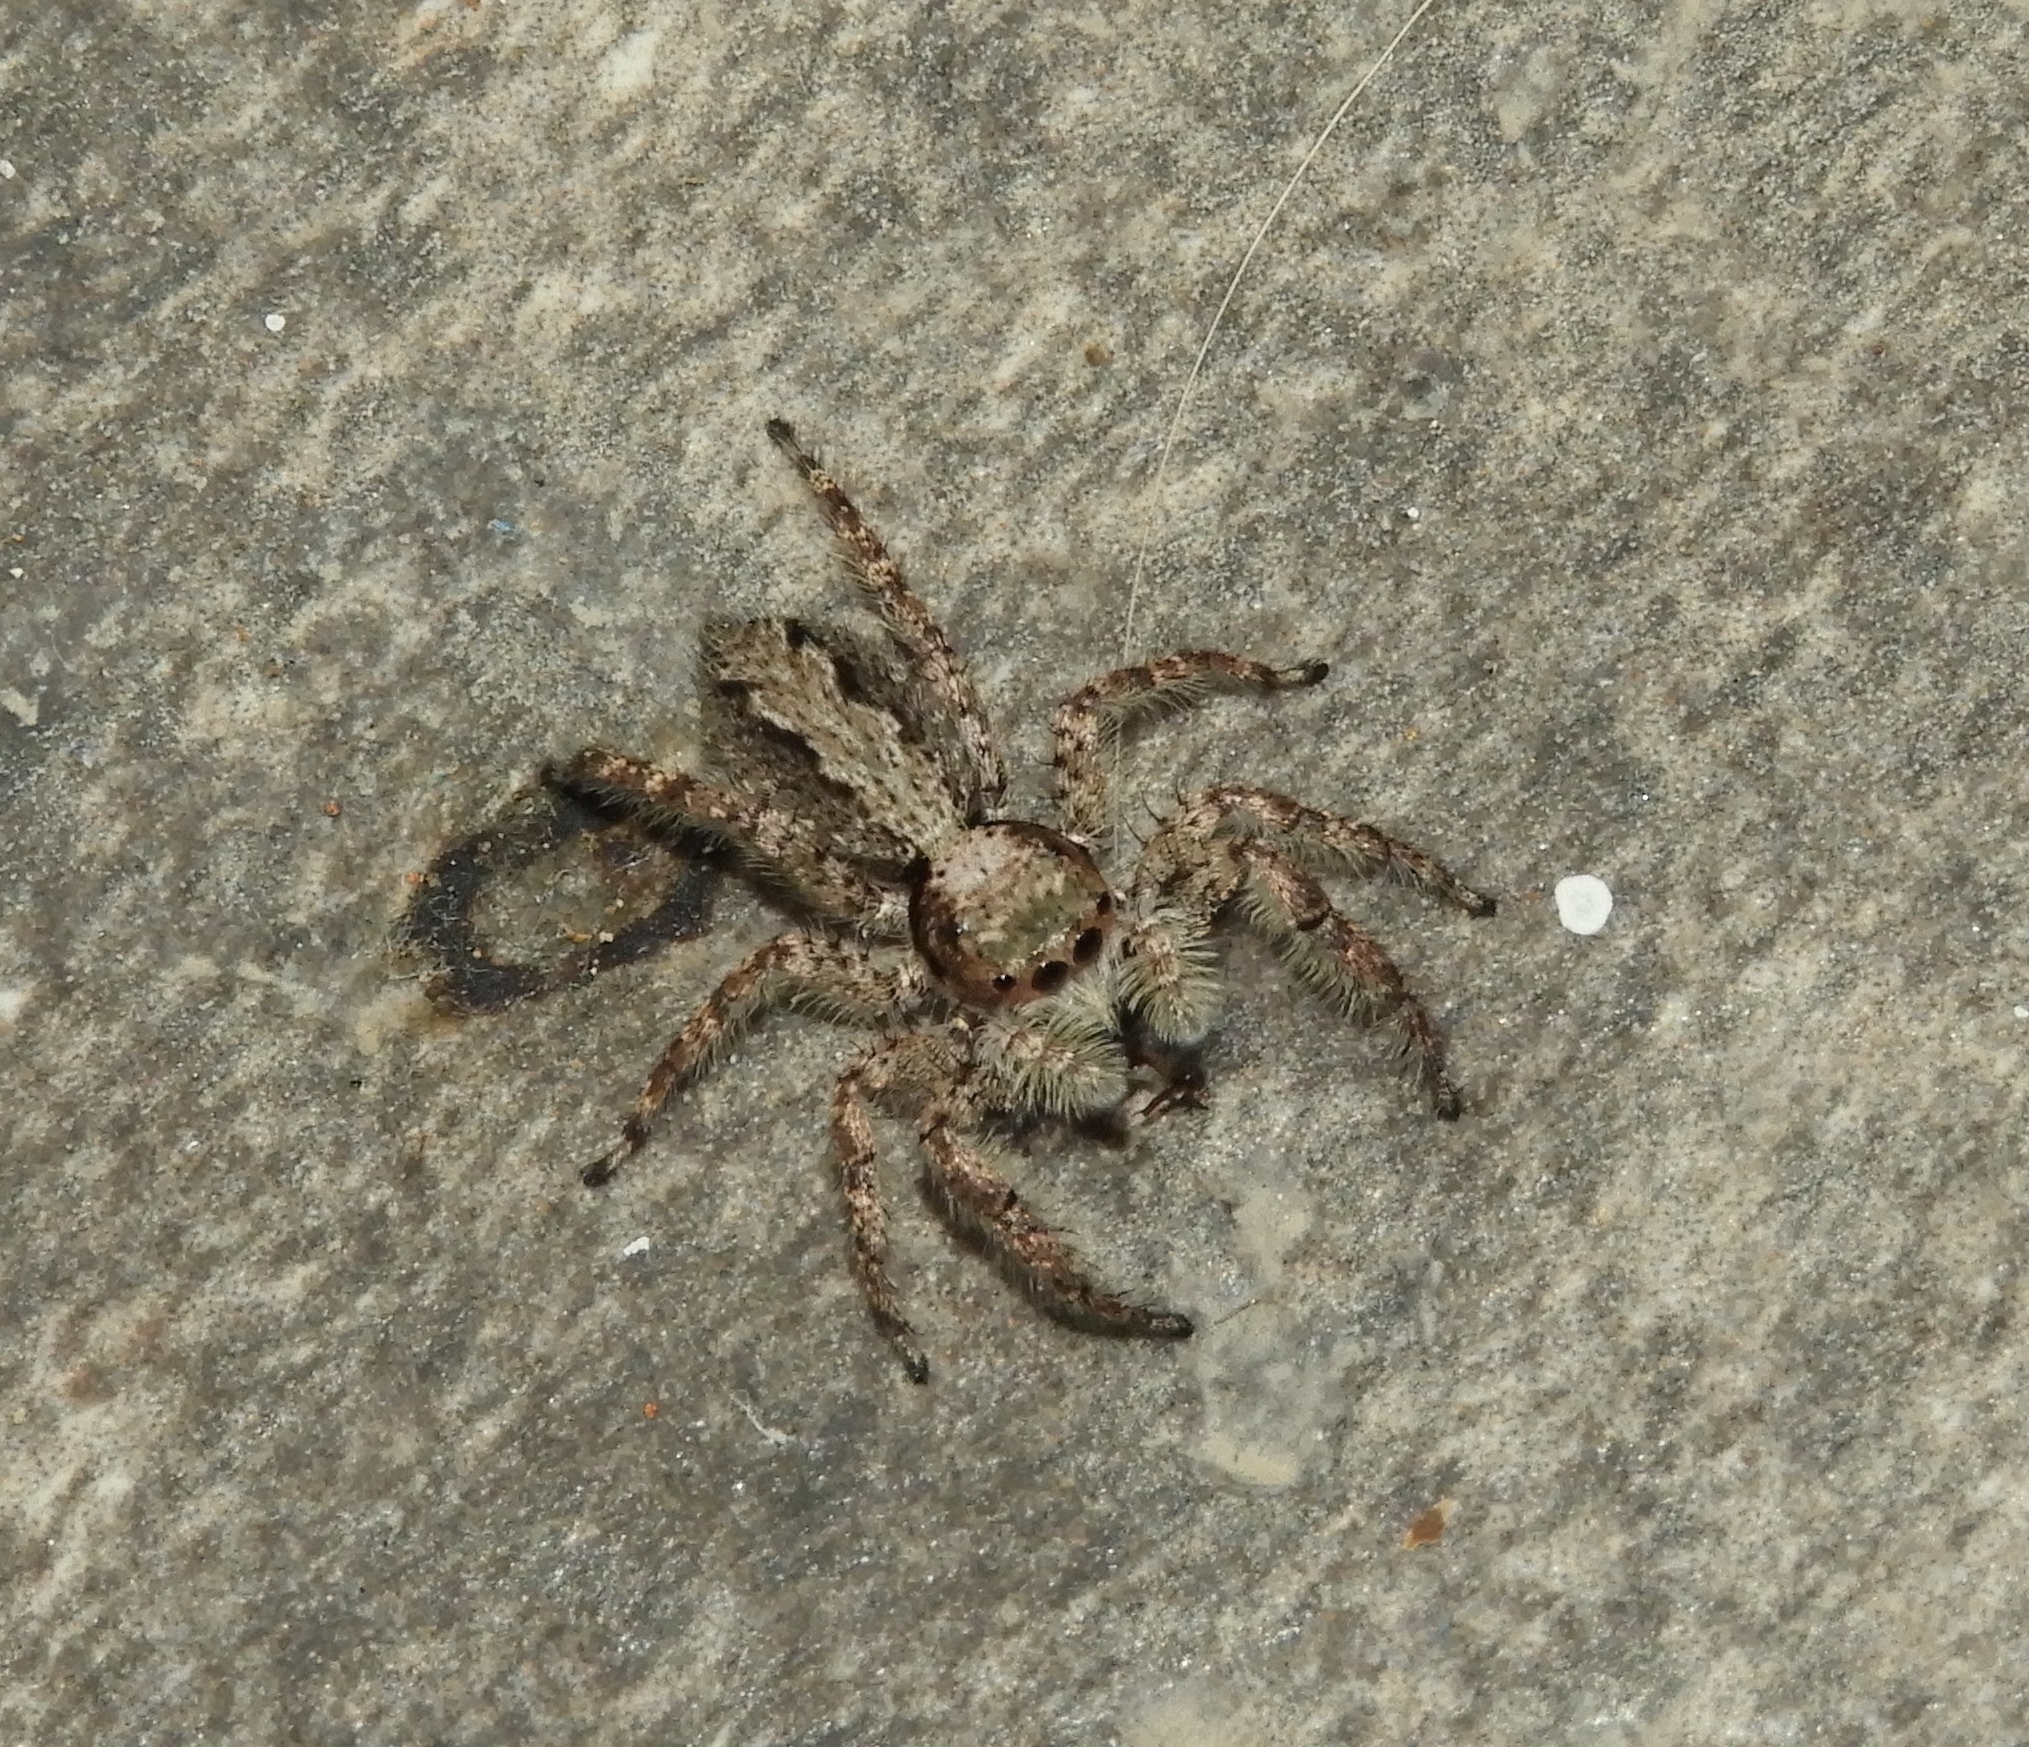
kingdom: Animalia
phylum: Arthropoda
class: Arachnida
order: Araneae
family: Salticidae
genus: Balmaceda
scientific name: Balmaceda
